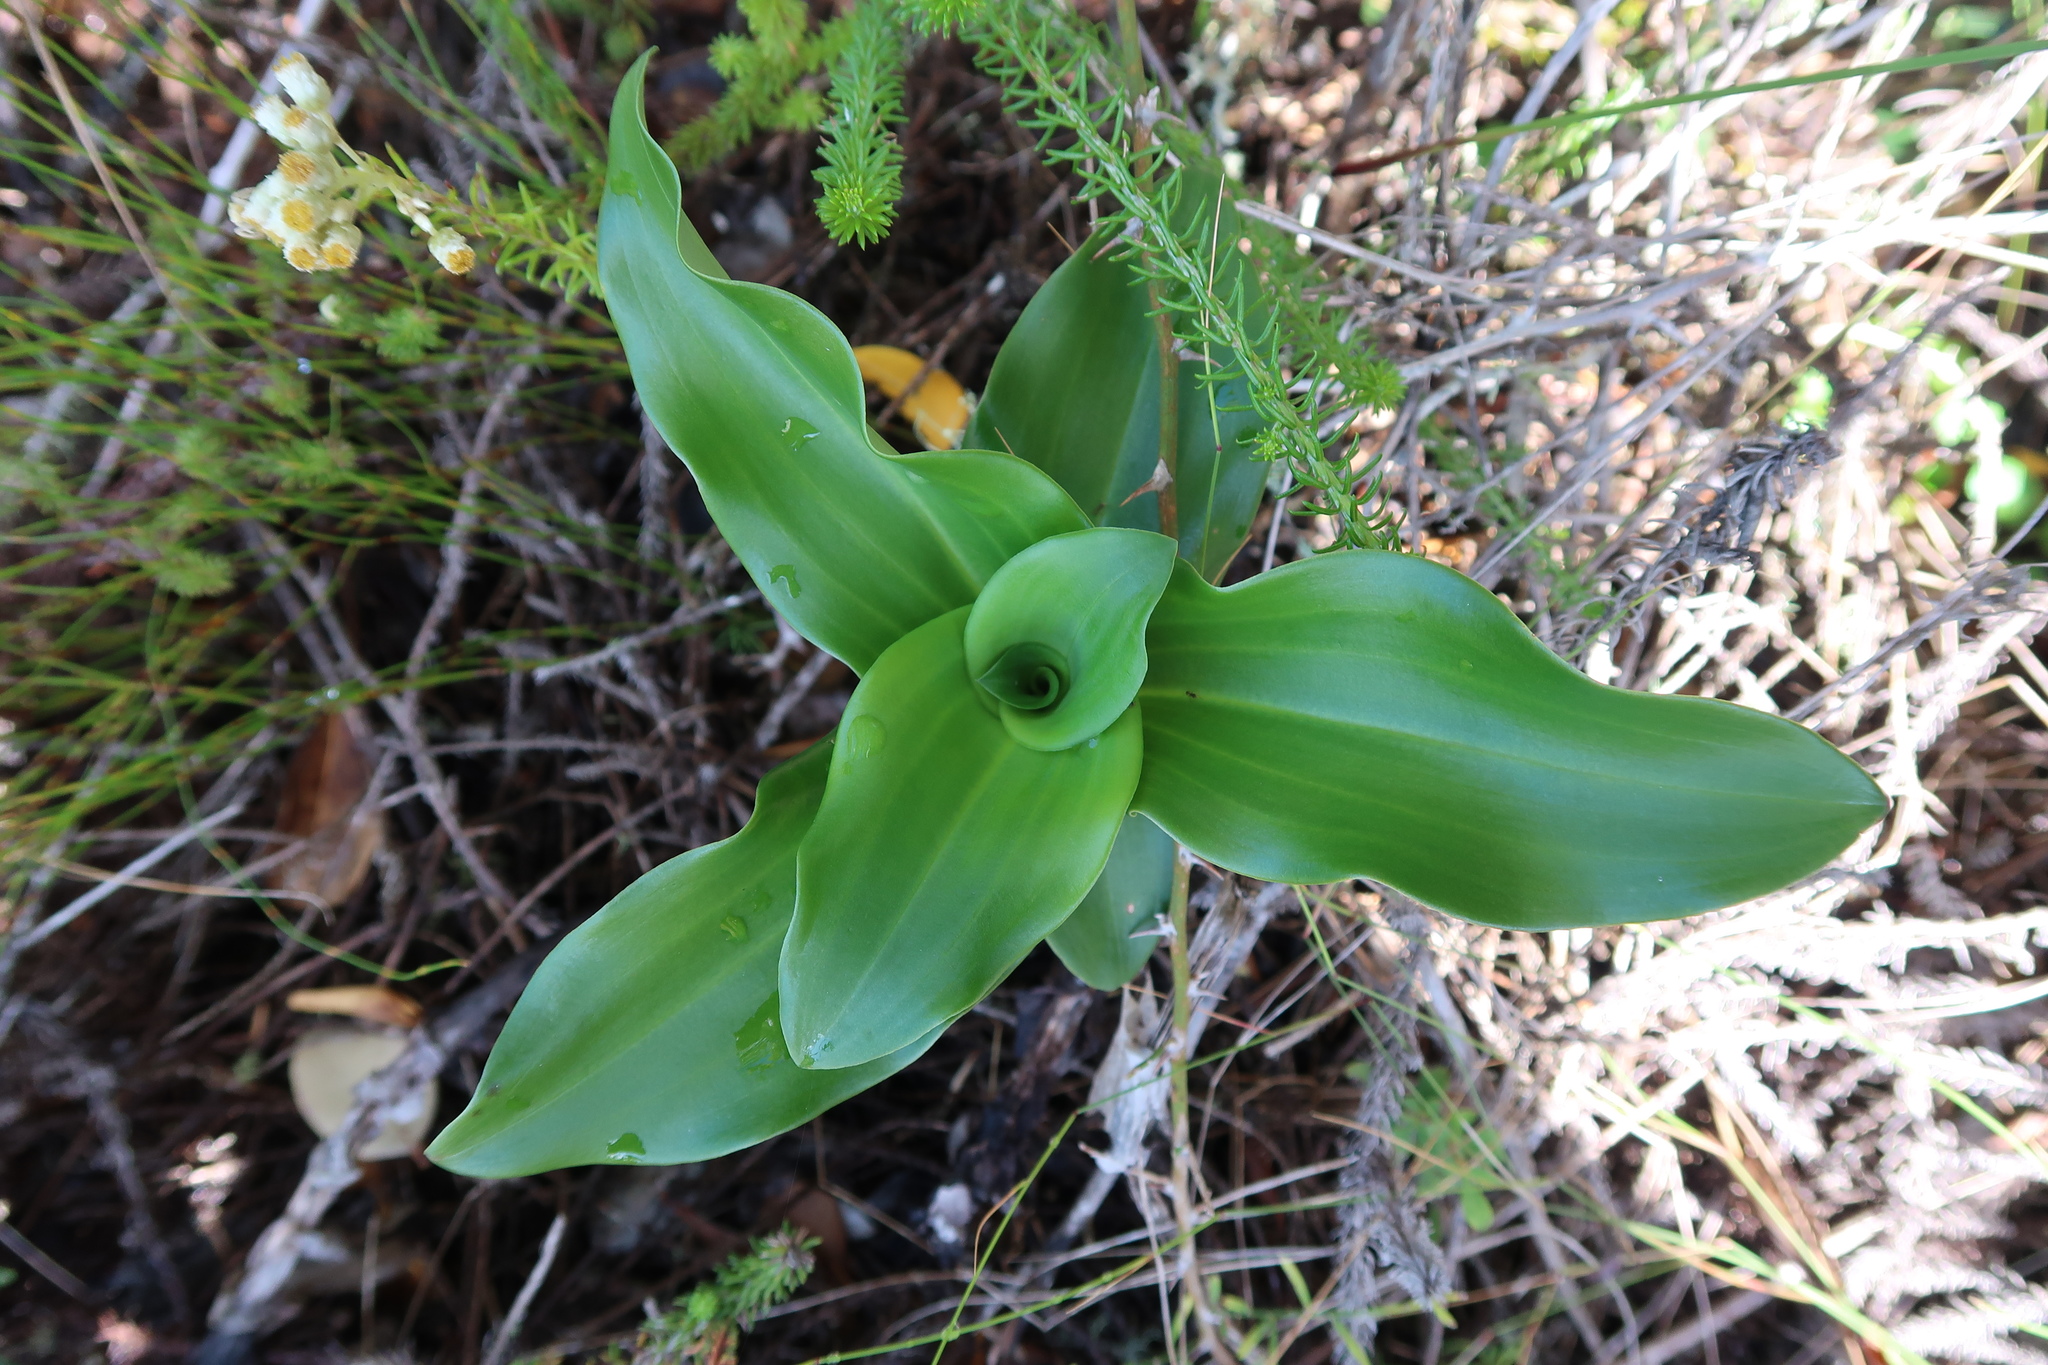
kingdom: Plantae
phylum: Tracheophyta
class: Liliopsida
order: Asparagales
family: Orchidaceae
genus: Bonatea
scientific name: Bonatea speciosa
